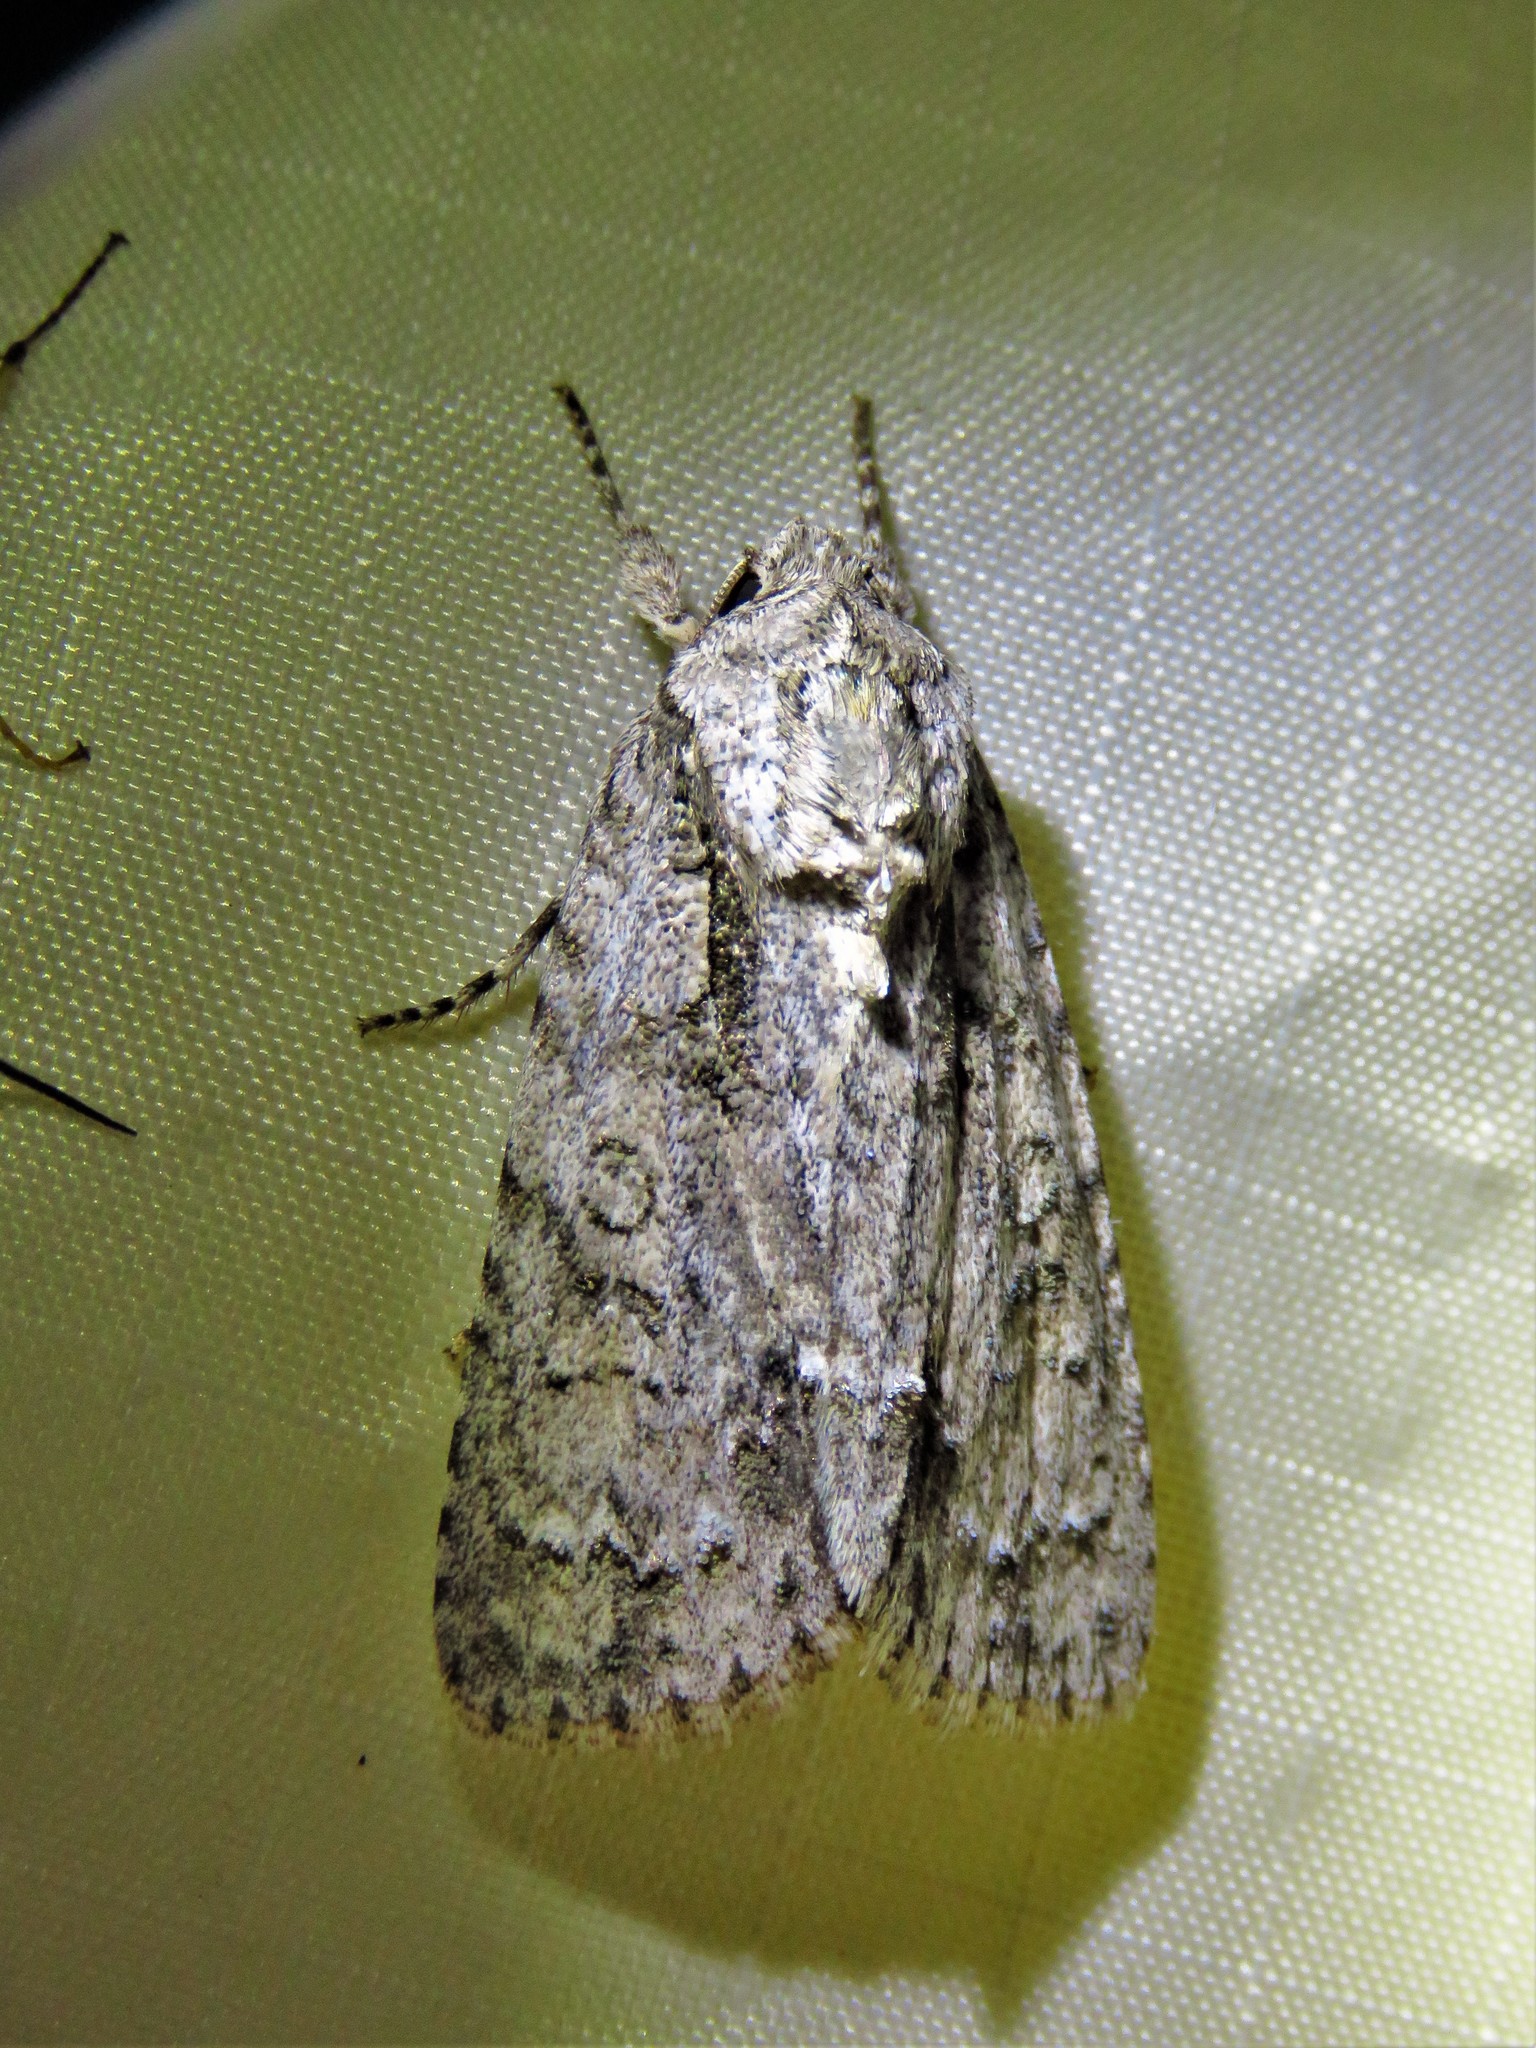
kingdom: Animalia
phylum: Arthropoda
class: Insecta
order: Lepidoptera
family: Noctuidae
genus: Acronicta
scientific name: Acronicta clarescens
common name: Clear dagger
